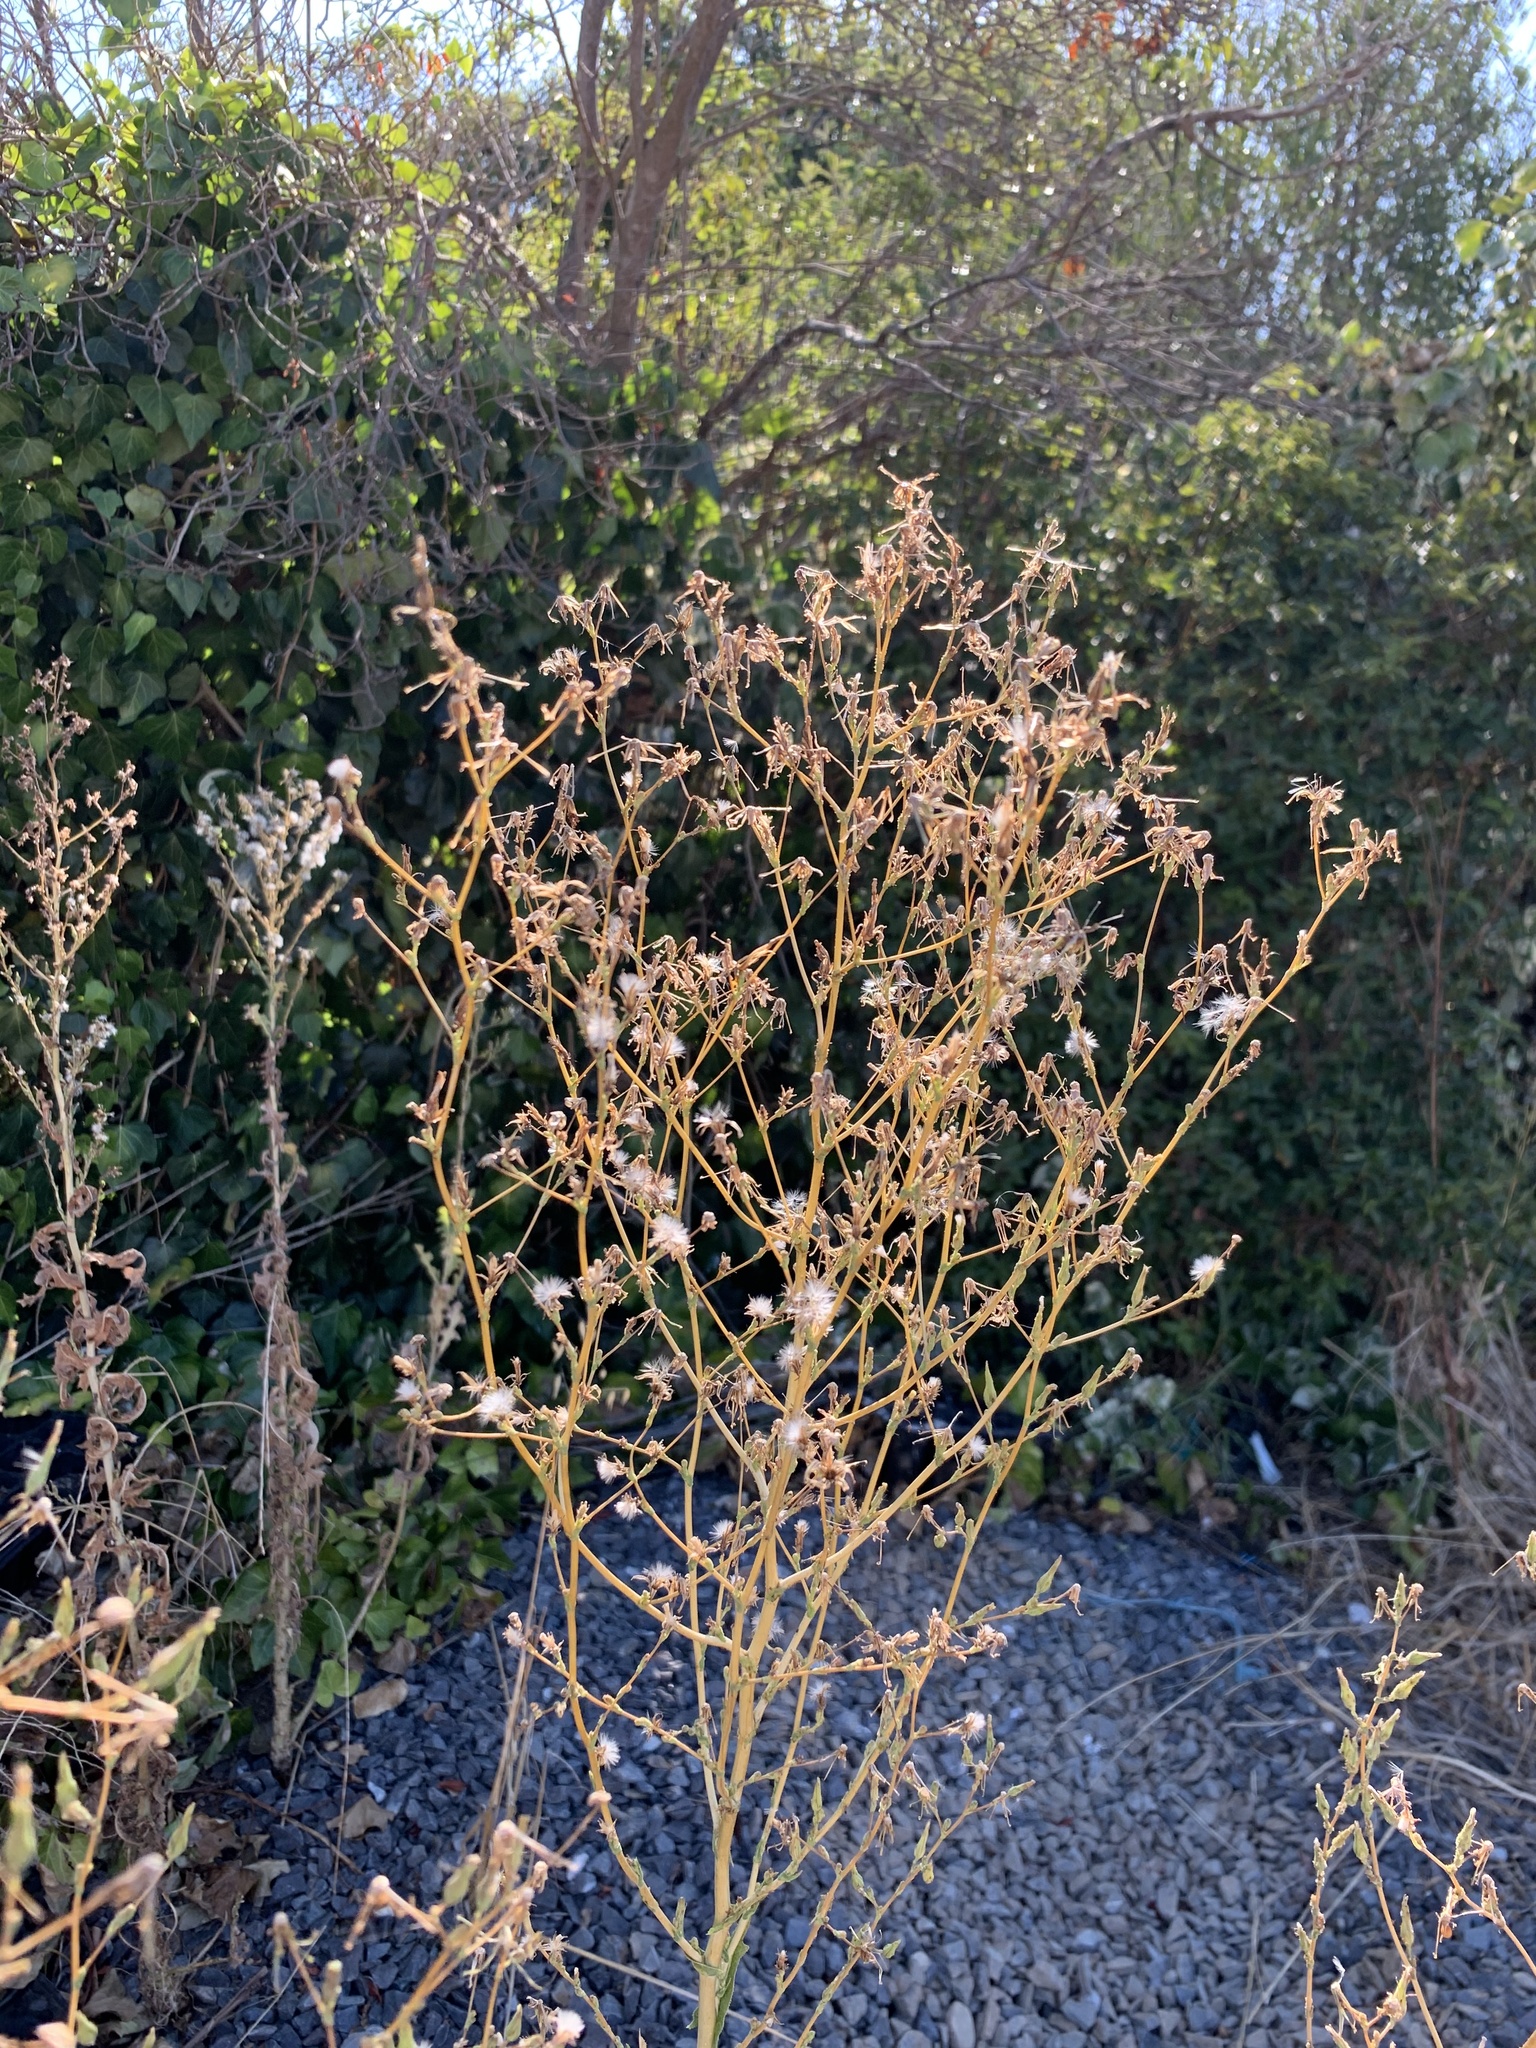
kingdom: Plantae
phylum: Tracheophyta
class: Magnoliopsida
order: Asterales
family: Asteraceae
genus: Lactuca
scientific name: Lactuca serriola
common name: Prickly lettuce
